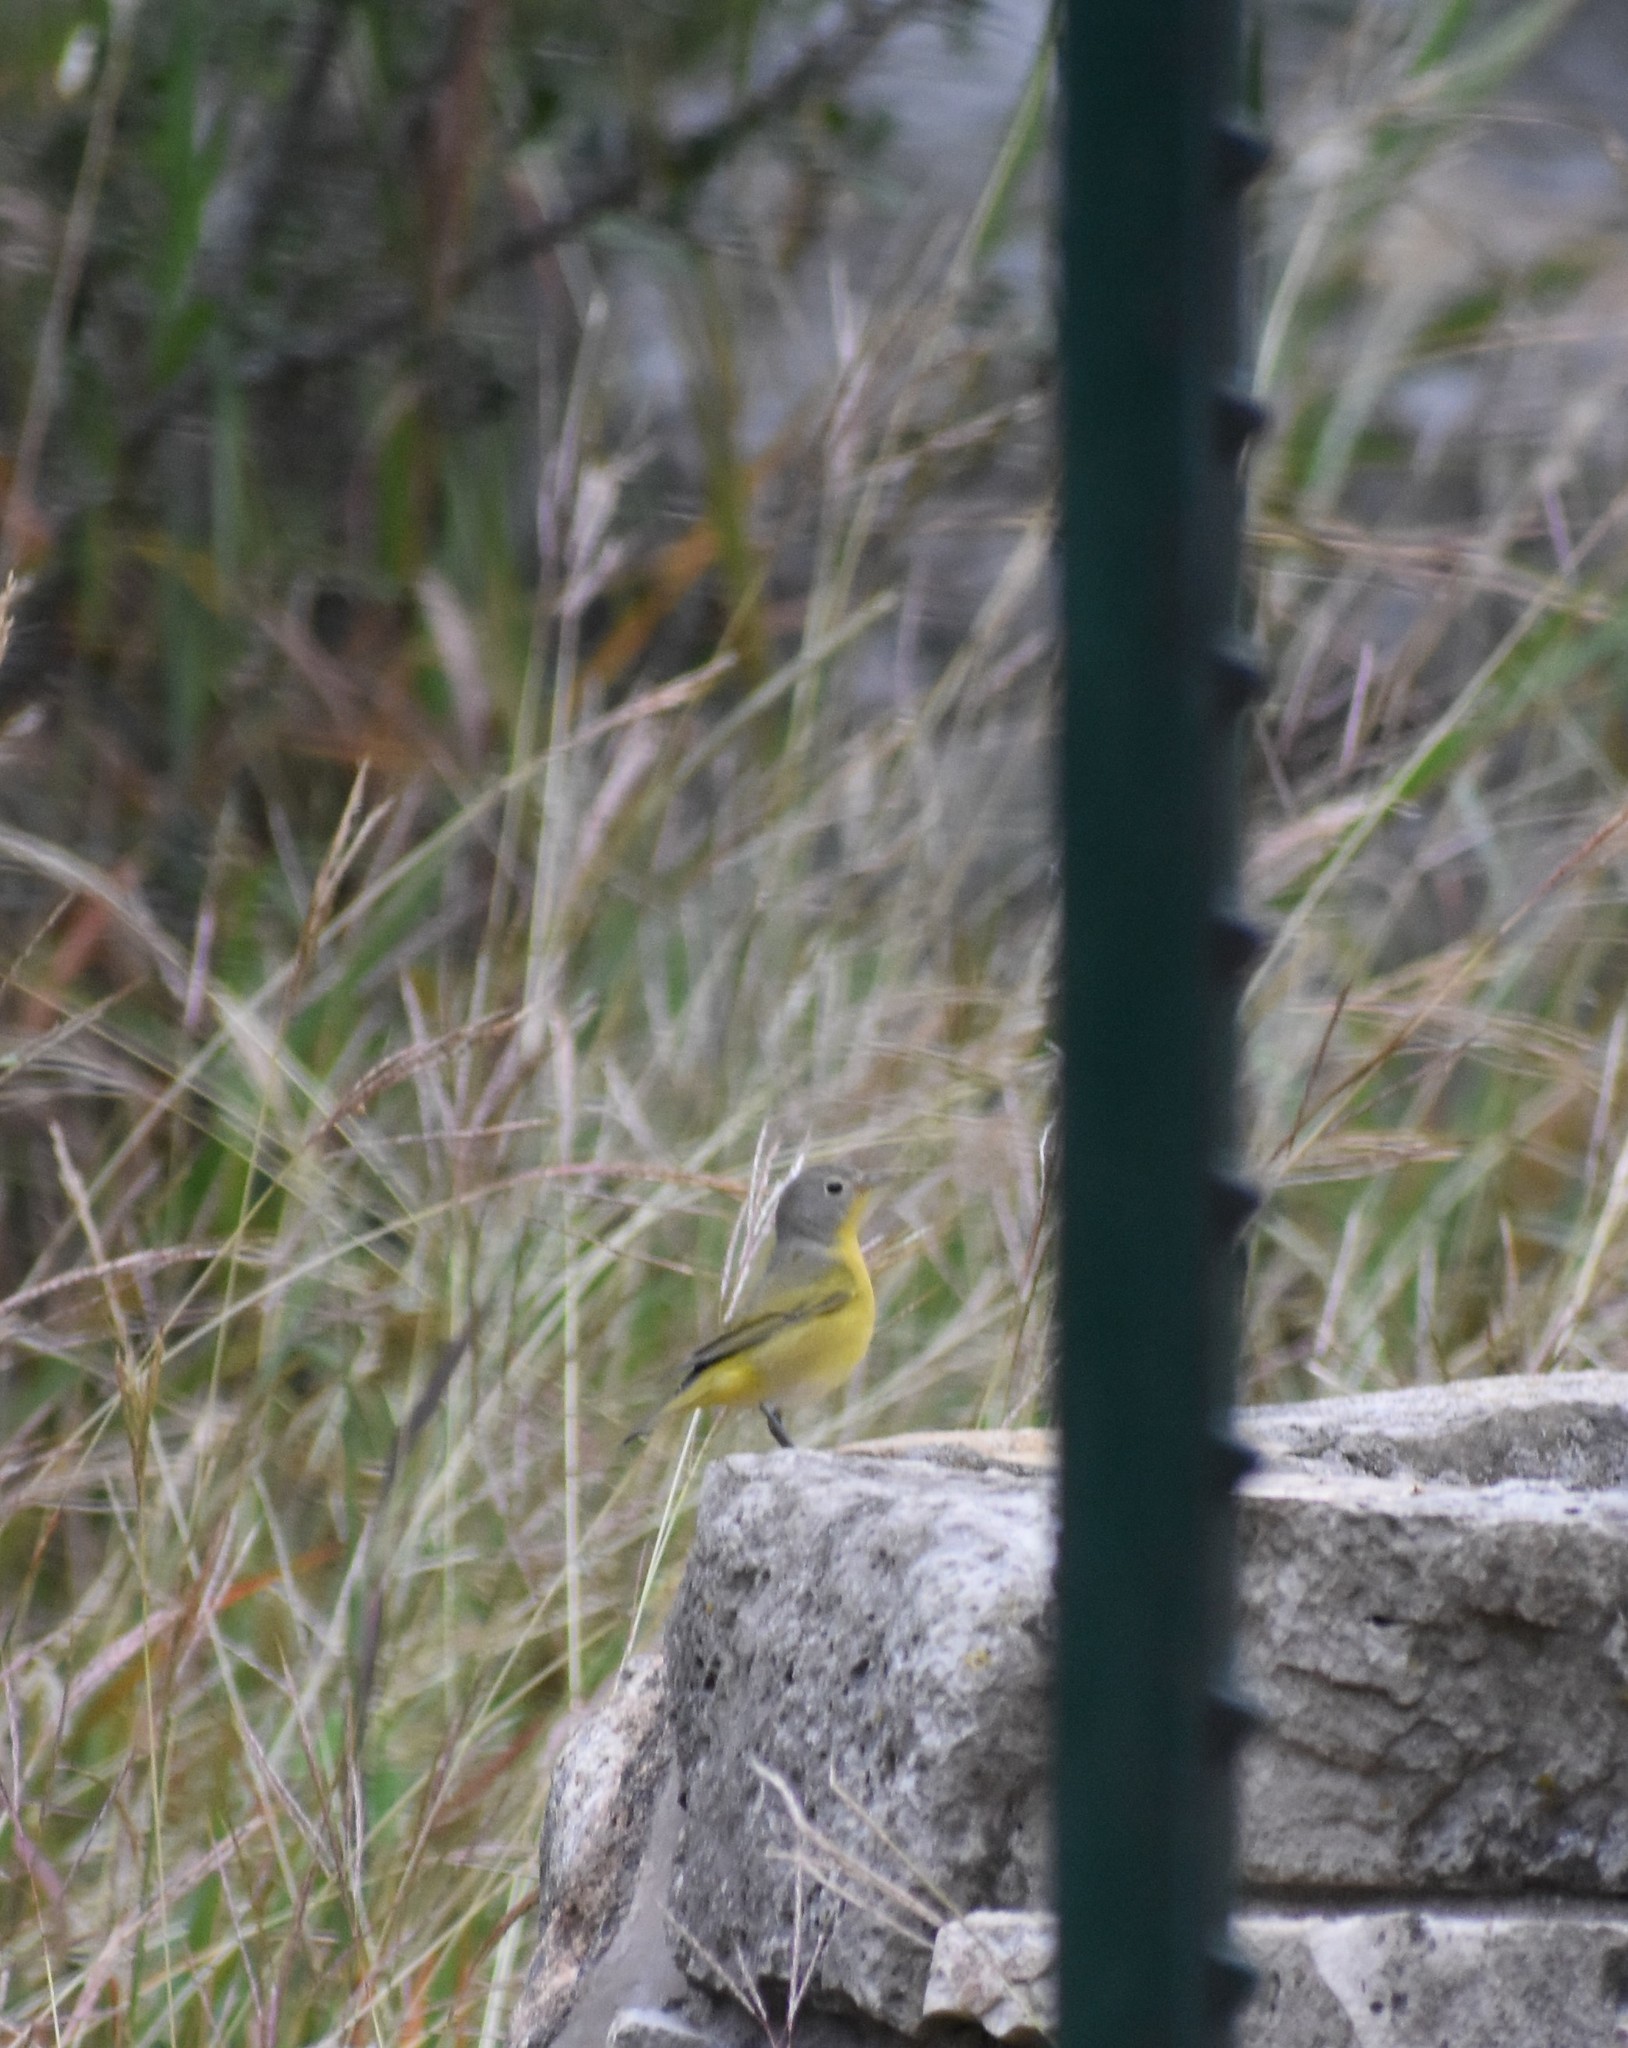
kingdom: Animalia
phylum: Chordata
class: Aves
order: Passeriformes
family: Parulidae
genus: Leiothlypis
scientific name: Leiothlypis ruficapilla
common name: Nashville warbler
